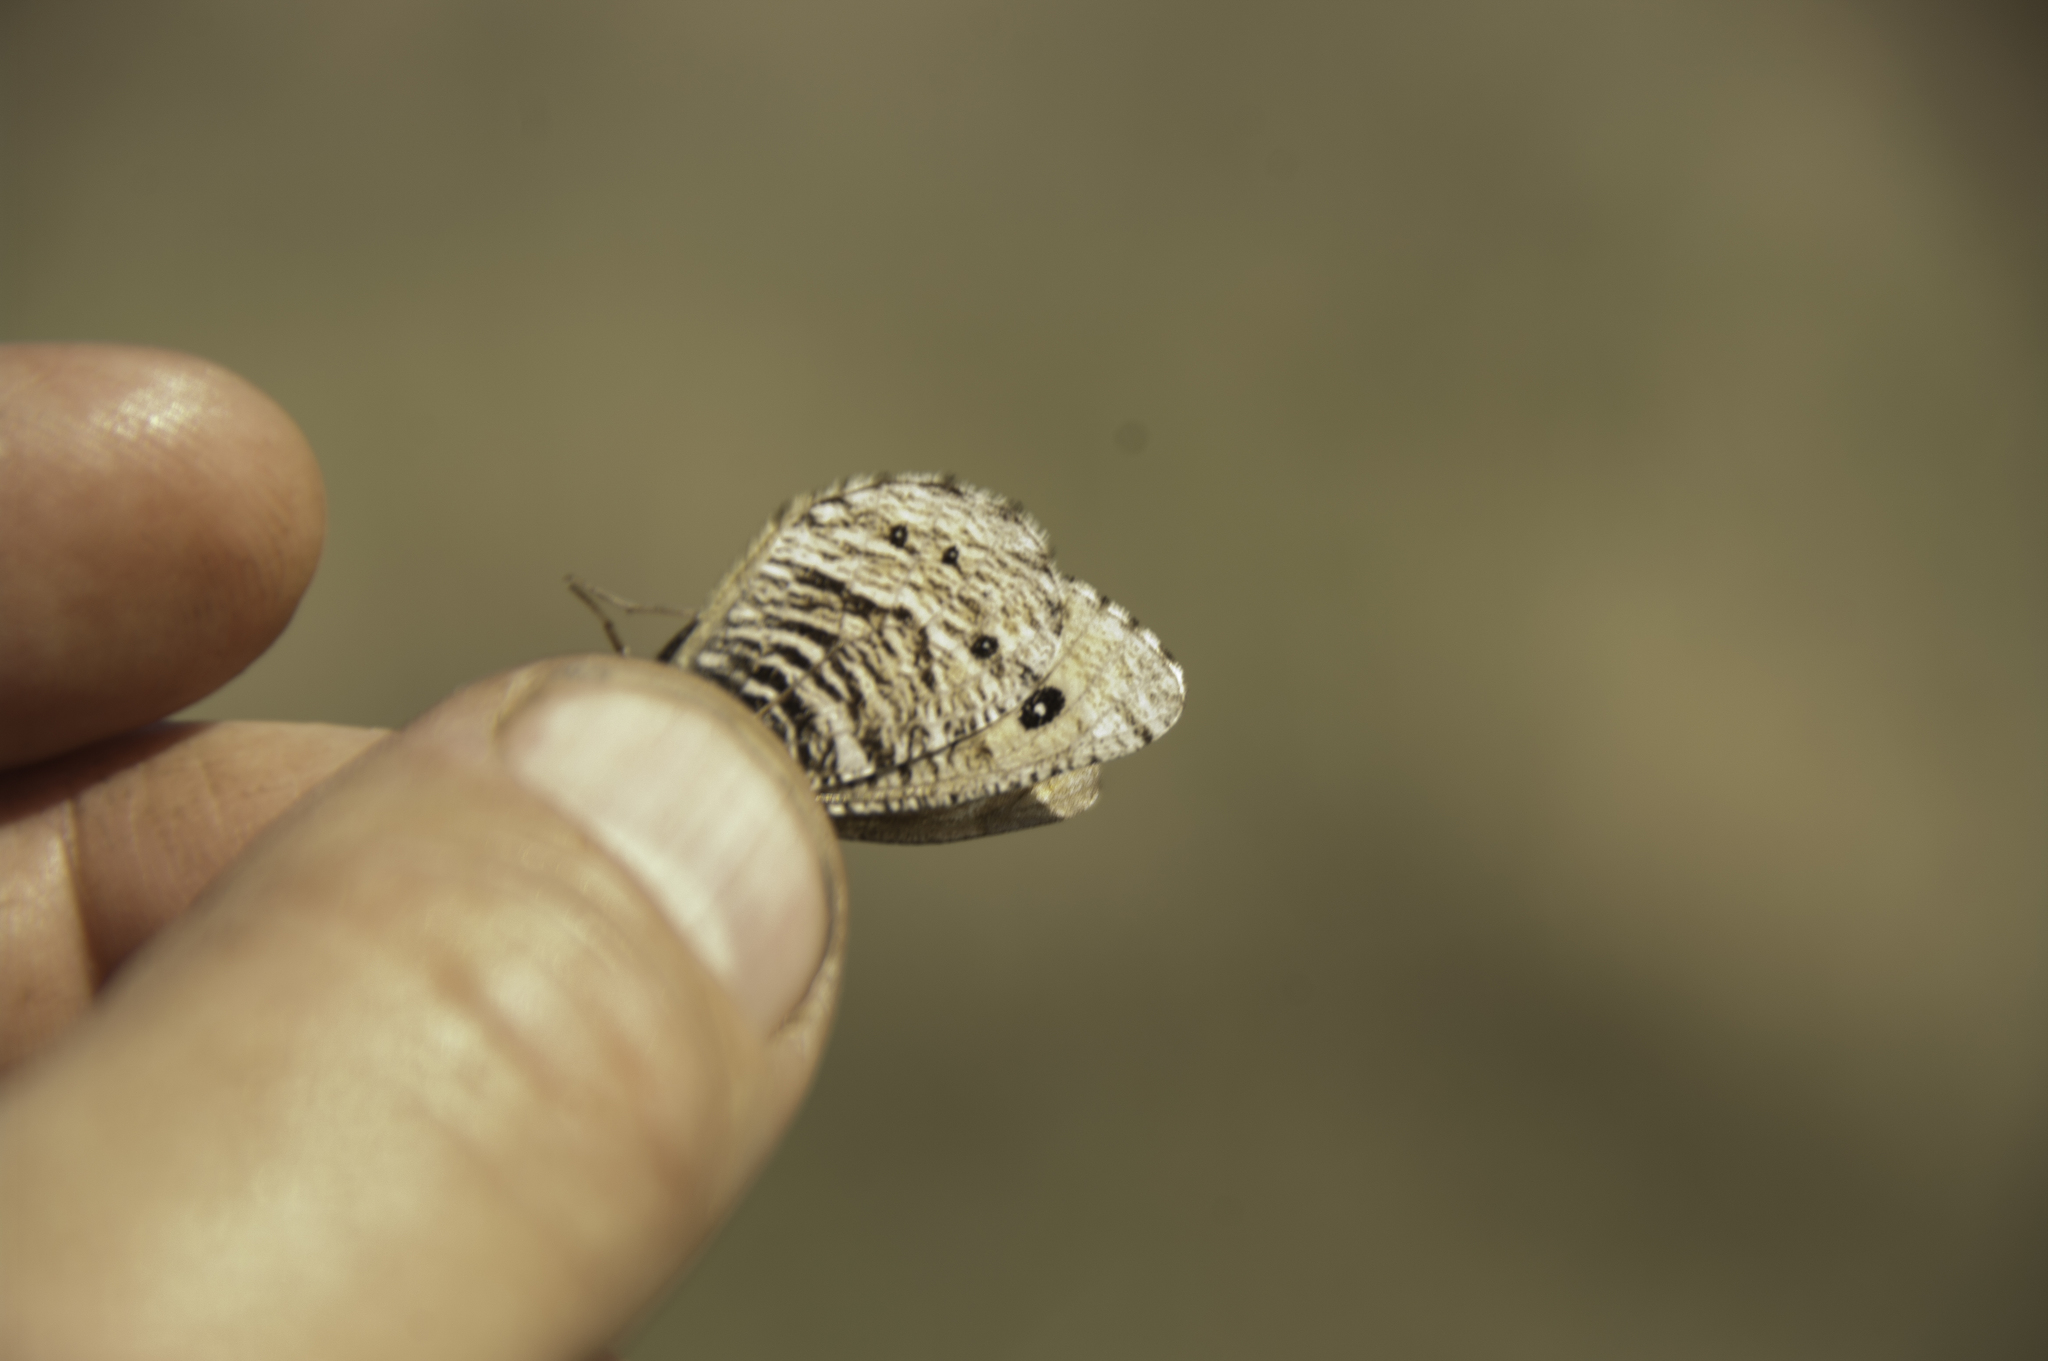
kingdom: Animalia
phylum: Arthropoda
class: Insecta
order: Lepidoptera
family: Nymphalidae
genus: Oeneis
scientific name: Oeneis uhleri
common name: Uhler's arctic
